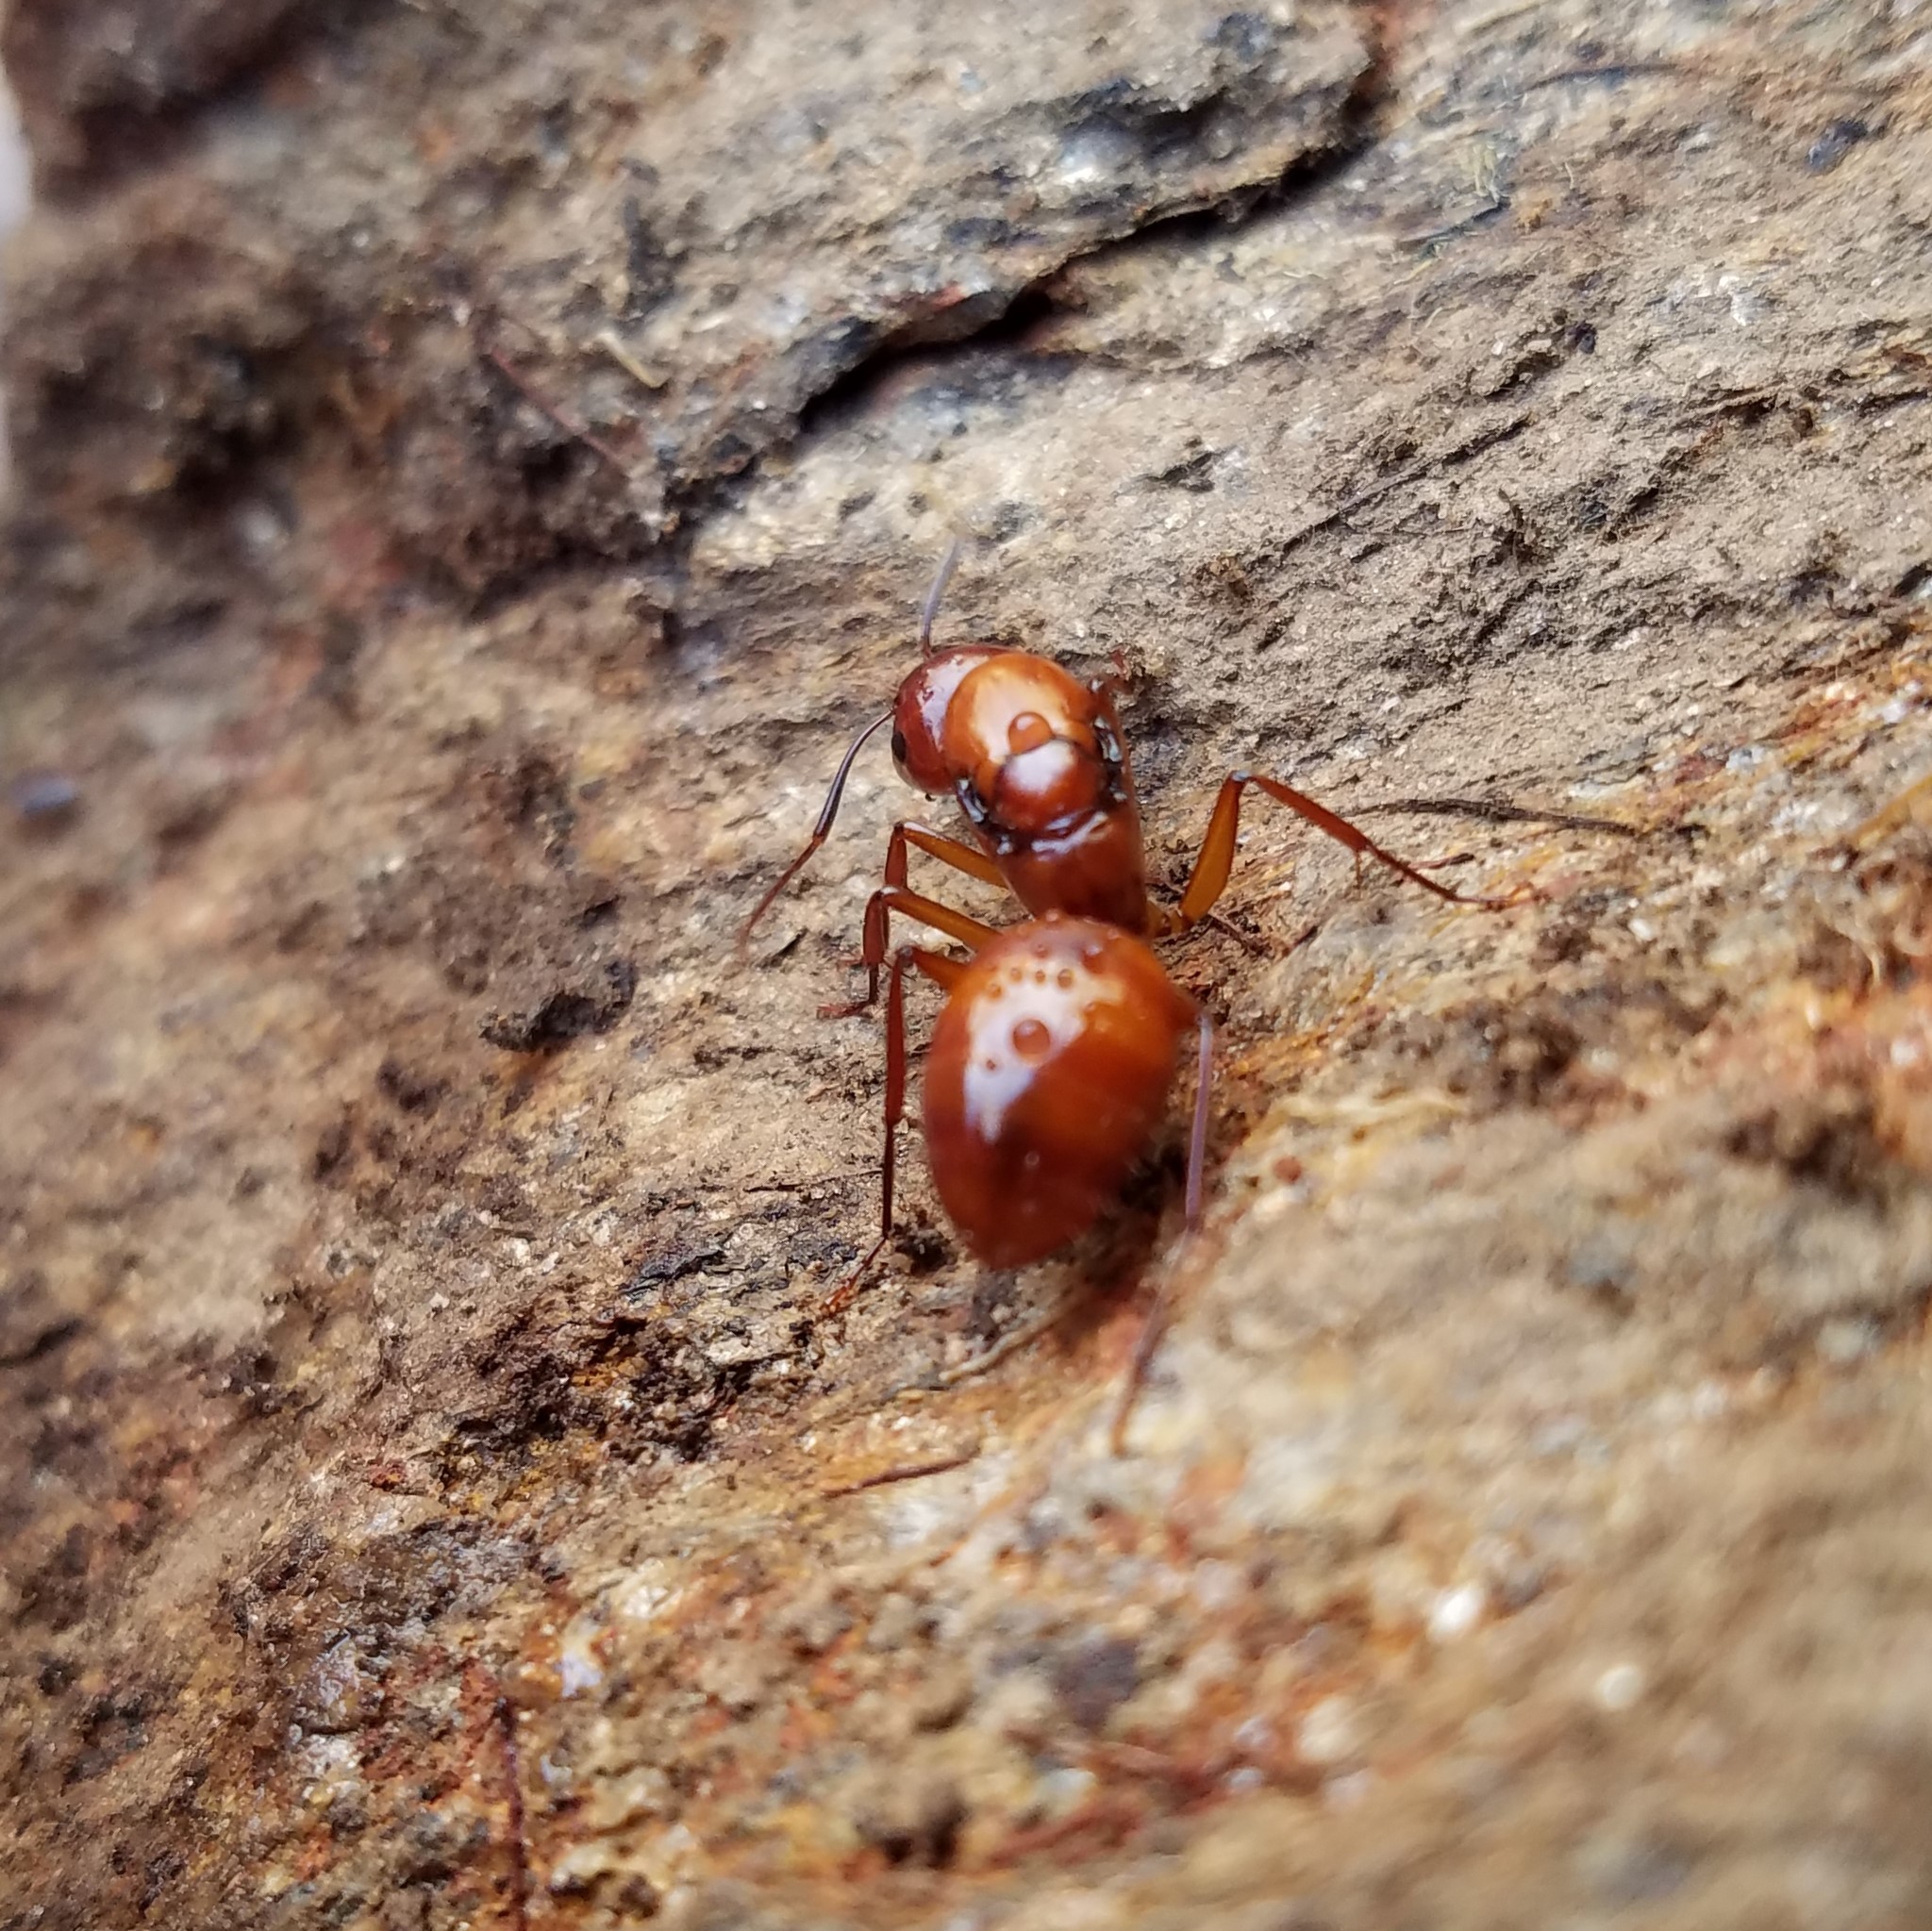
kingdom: Animalia
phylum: Arthropoda
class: Insecta
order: Hymenoptera
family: Formicidae
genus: Camponotus
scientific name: Camponotus castaneus
